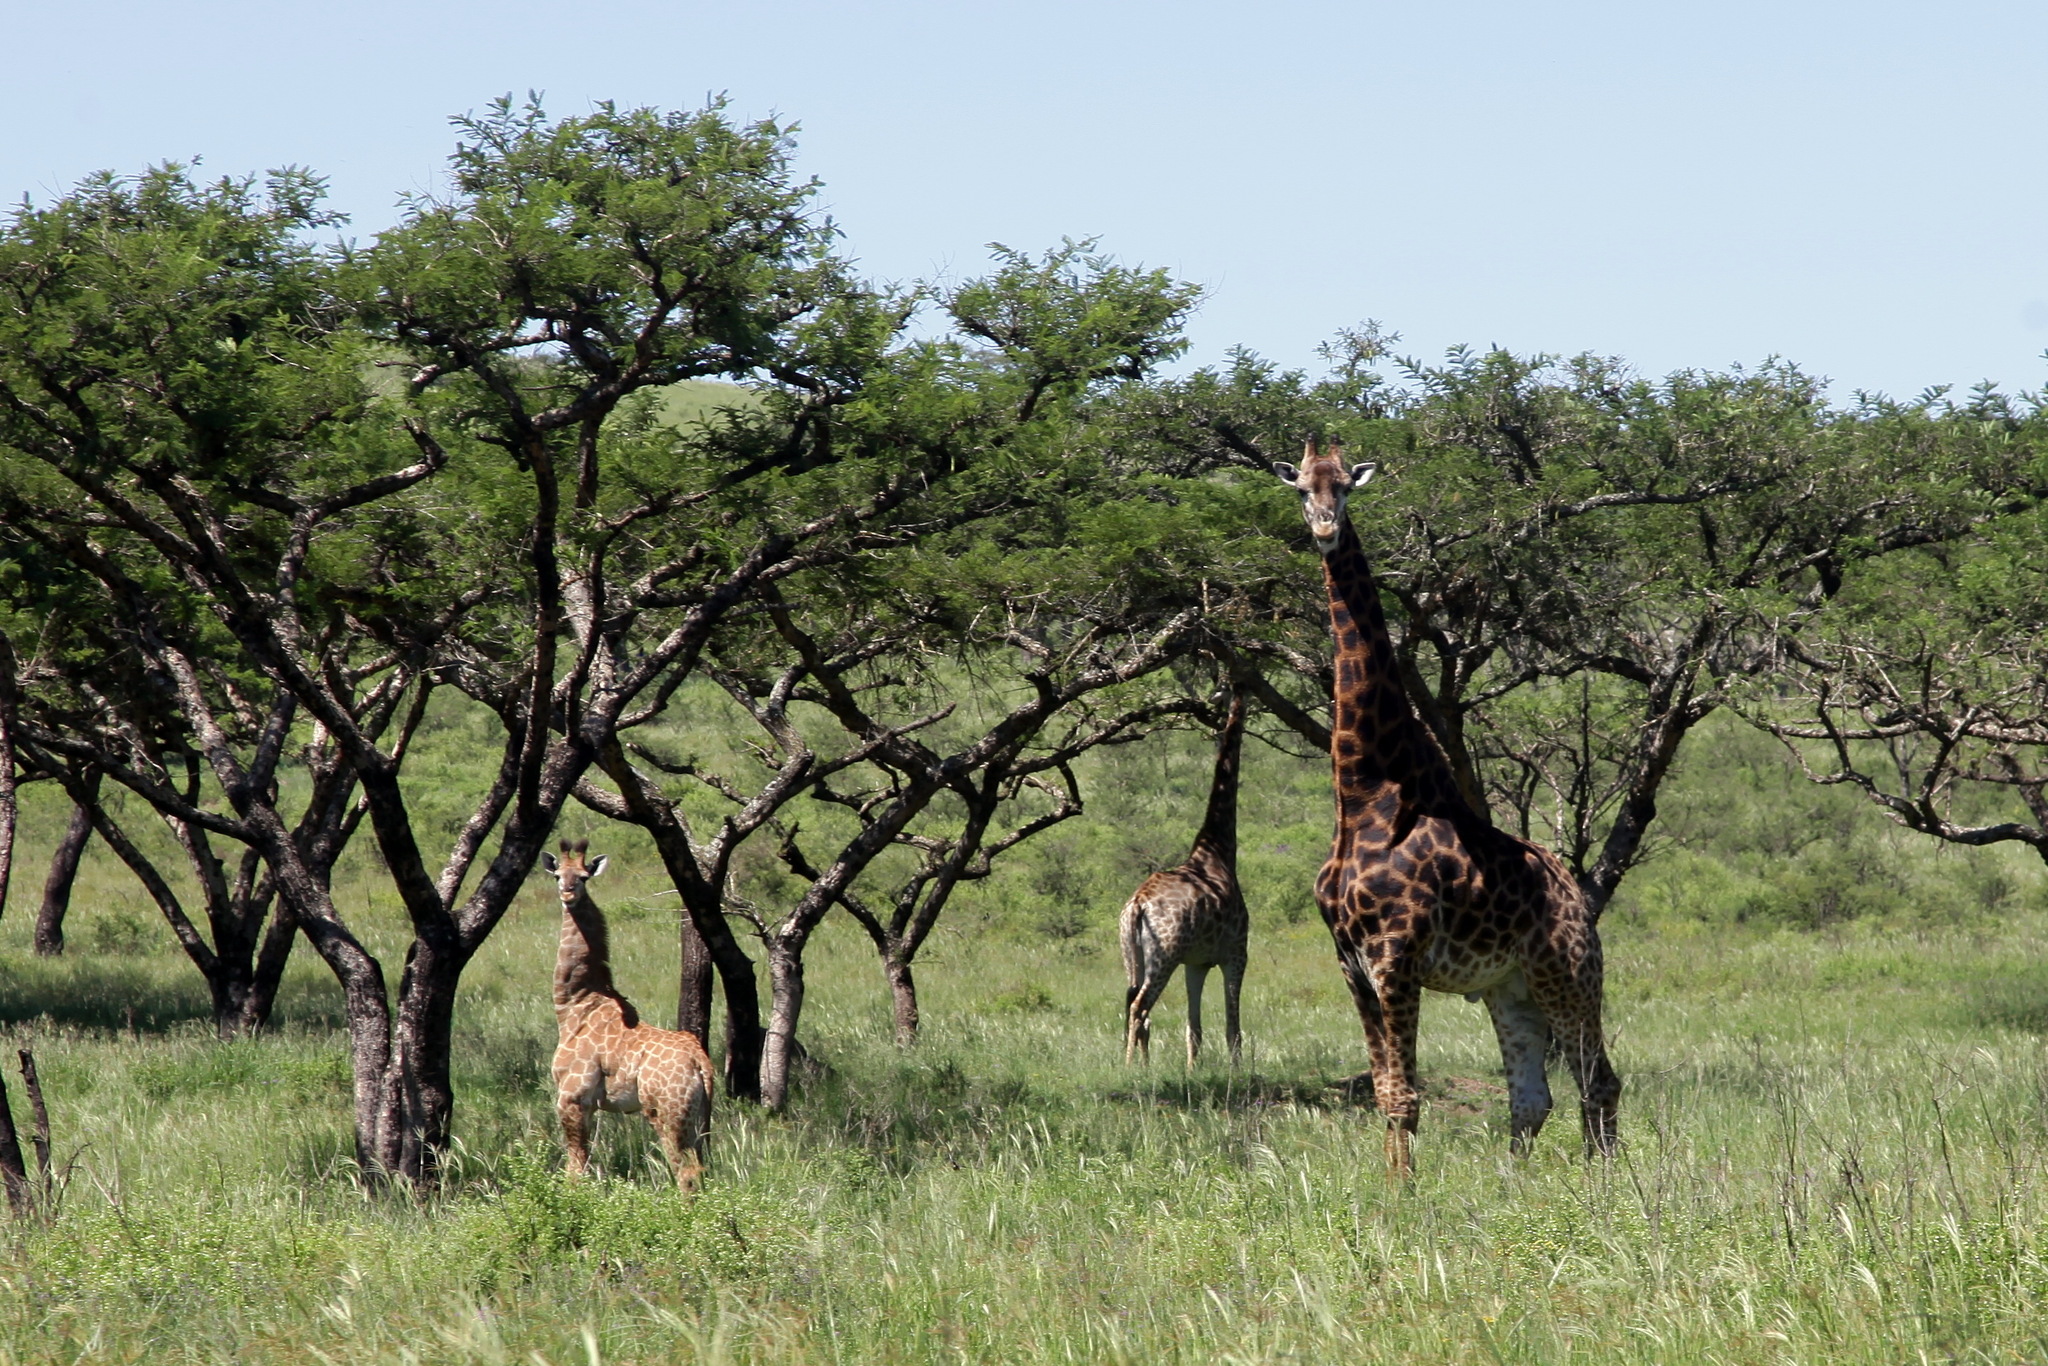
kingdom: Animalia
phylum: Chordata
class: Mammalia
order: Artiodactyla
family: Giraffidae
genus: Giraffa
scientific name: Giraffa giraffa
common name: Southern giraffe
